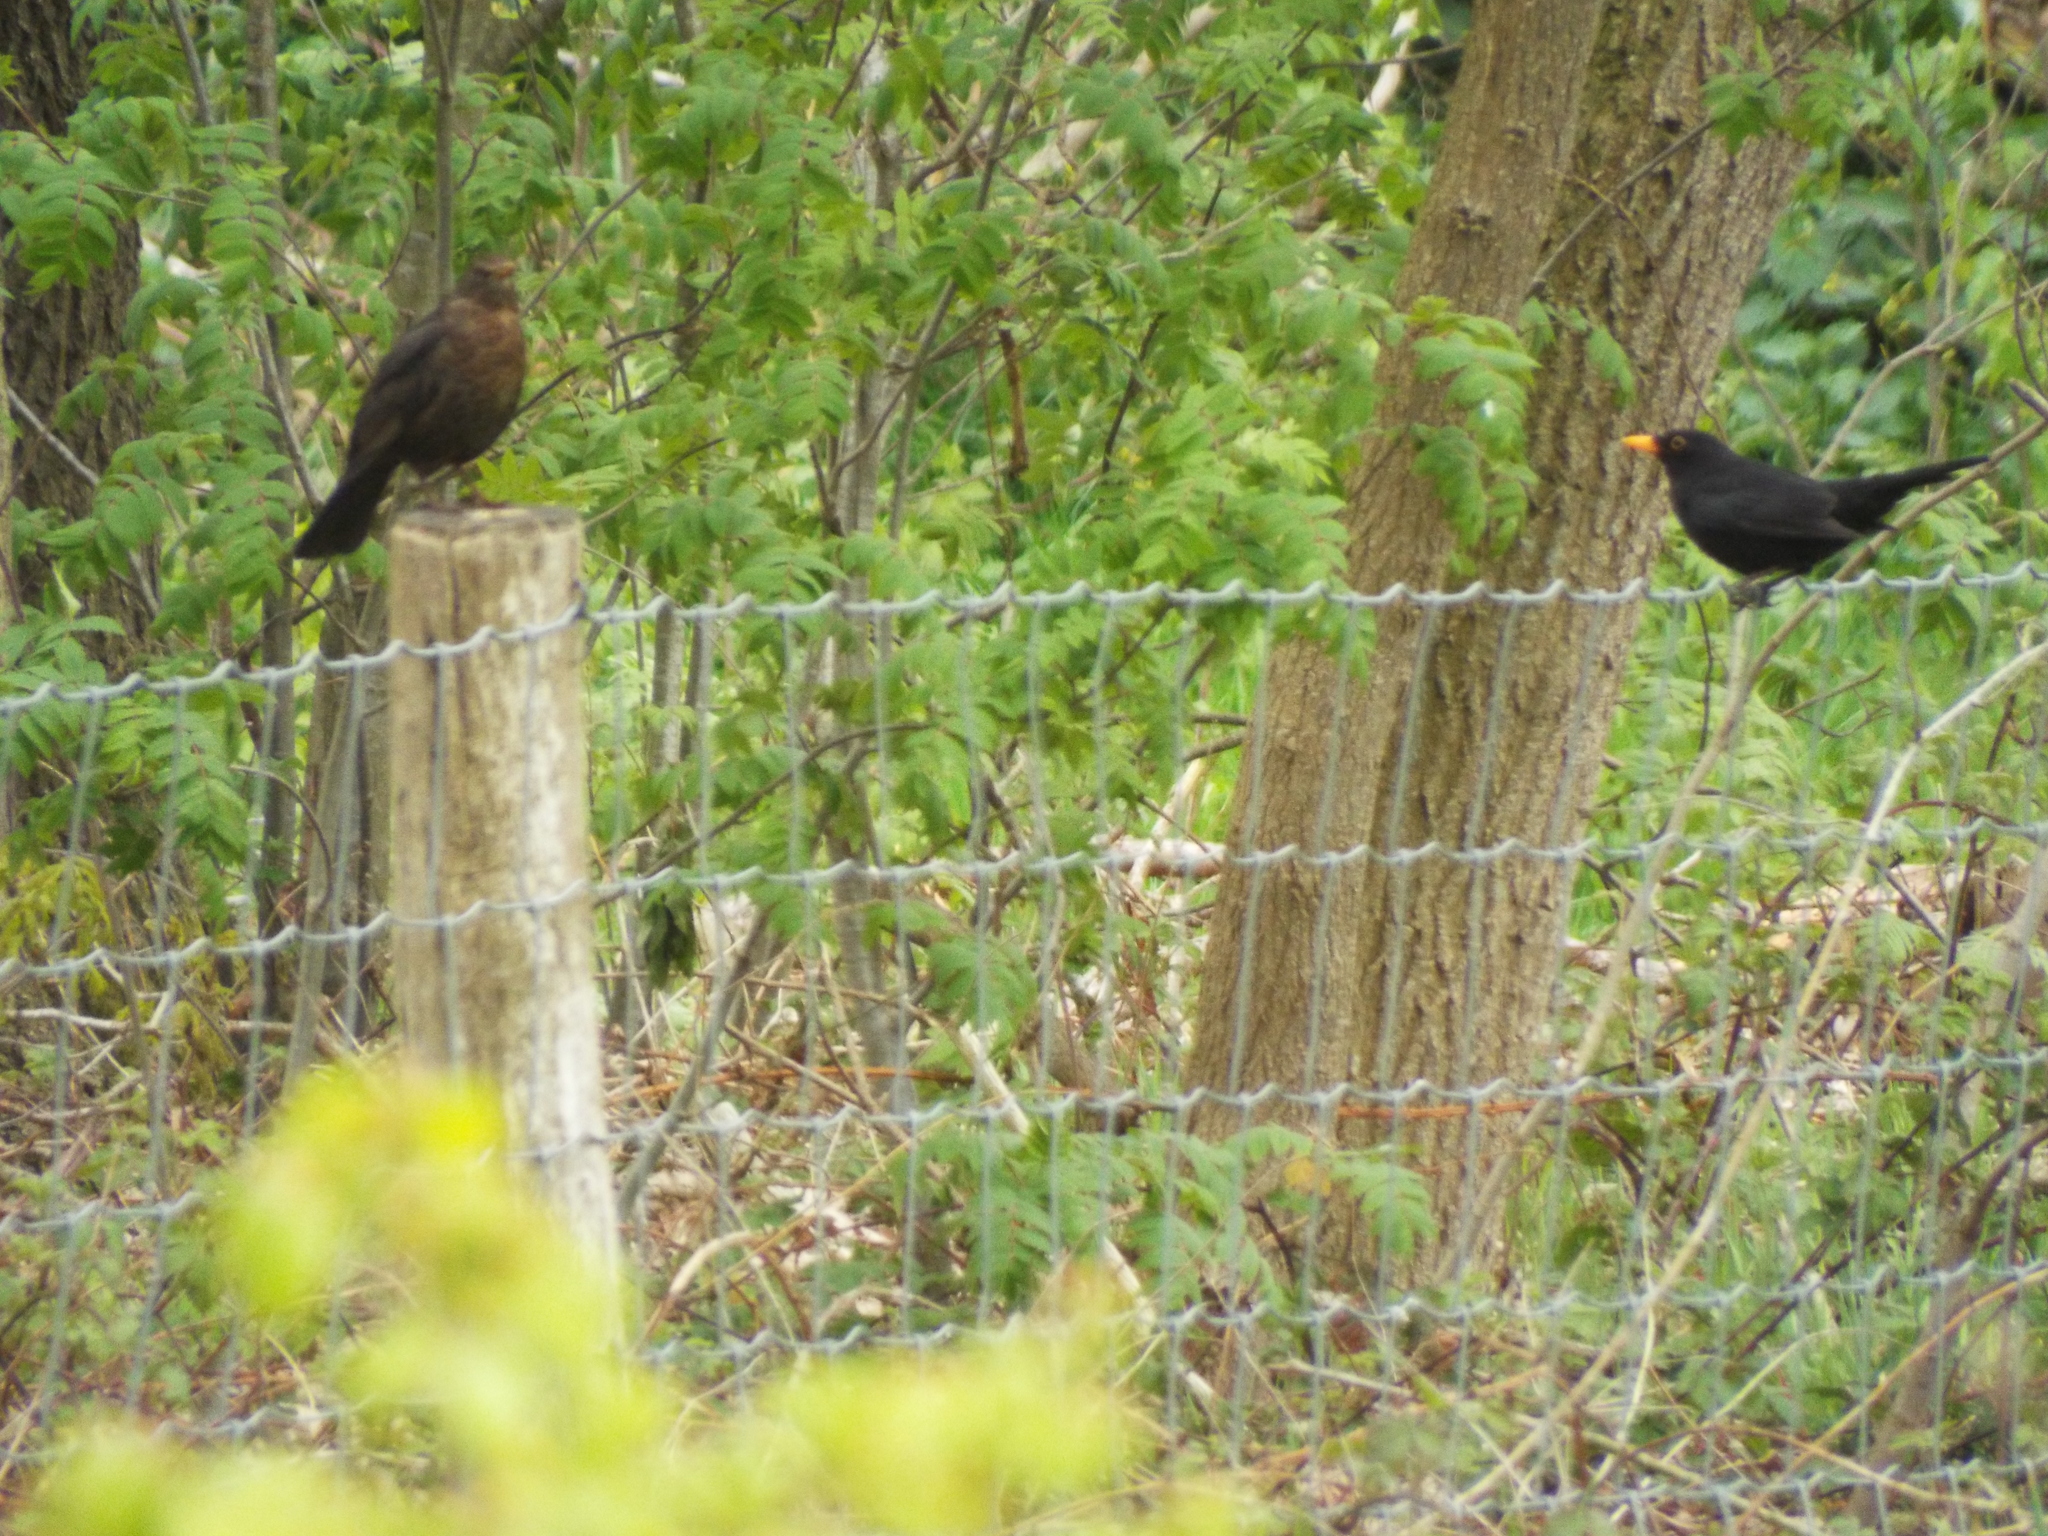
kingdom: Animalia
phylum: Chordata
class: Aves
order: Passeriformes
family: Turdidae
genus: Turdus
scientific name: Turdus merula
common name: Common blackbird
